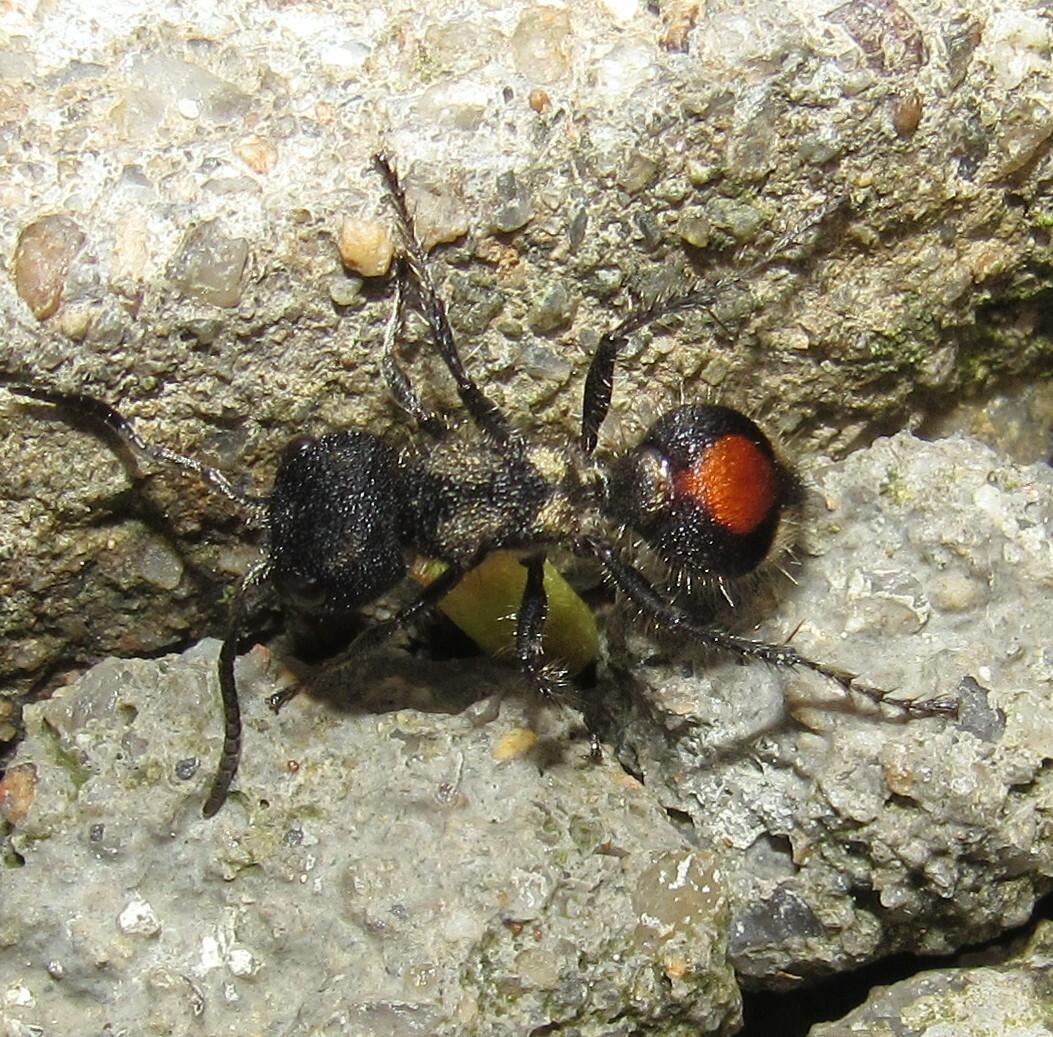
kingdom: Animalia
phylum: Arthropoda
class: Insecta
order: Hymenoptera
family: Mutillidae
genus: Hoplocrates
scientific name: Hoplocrates
